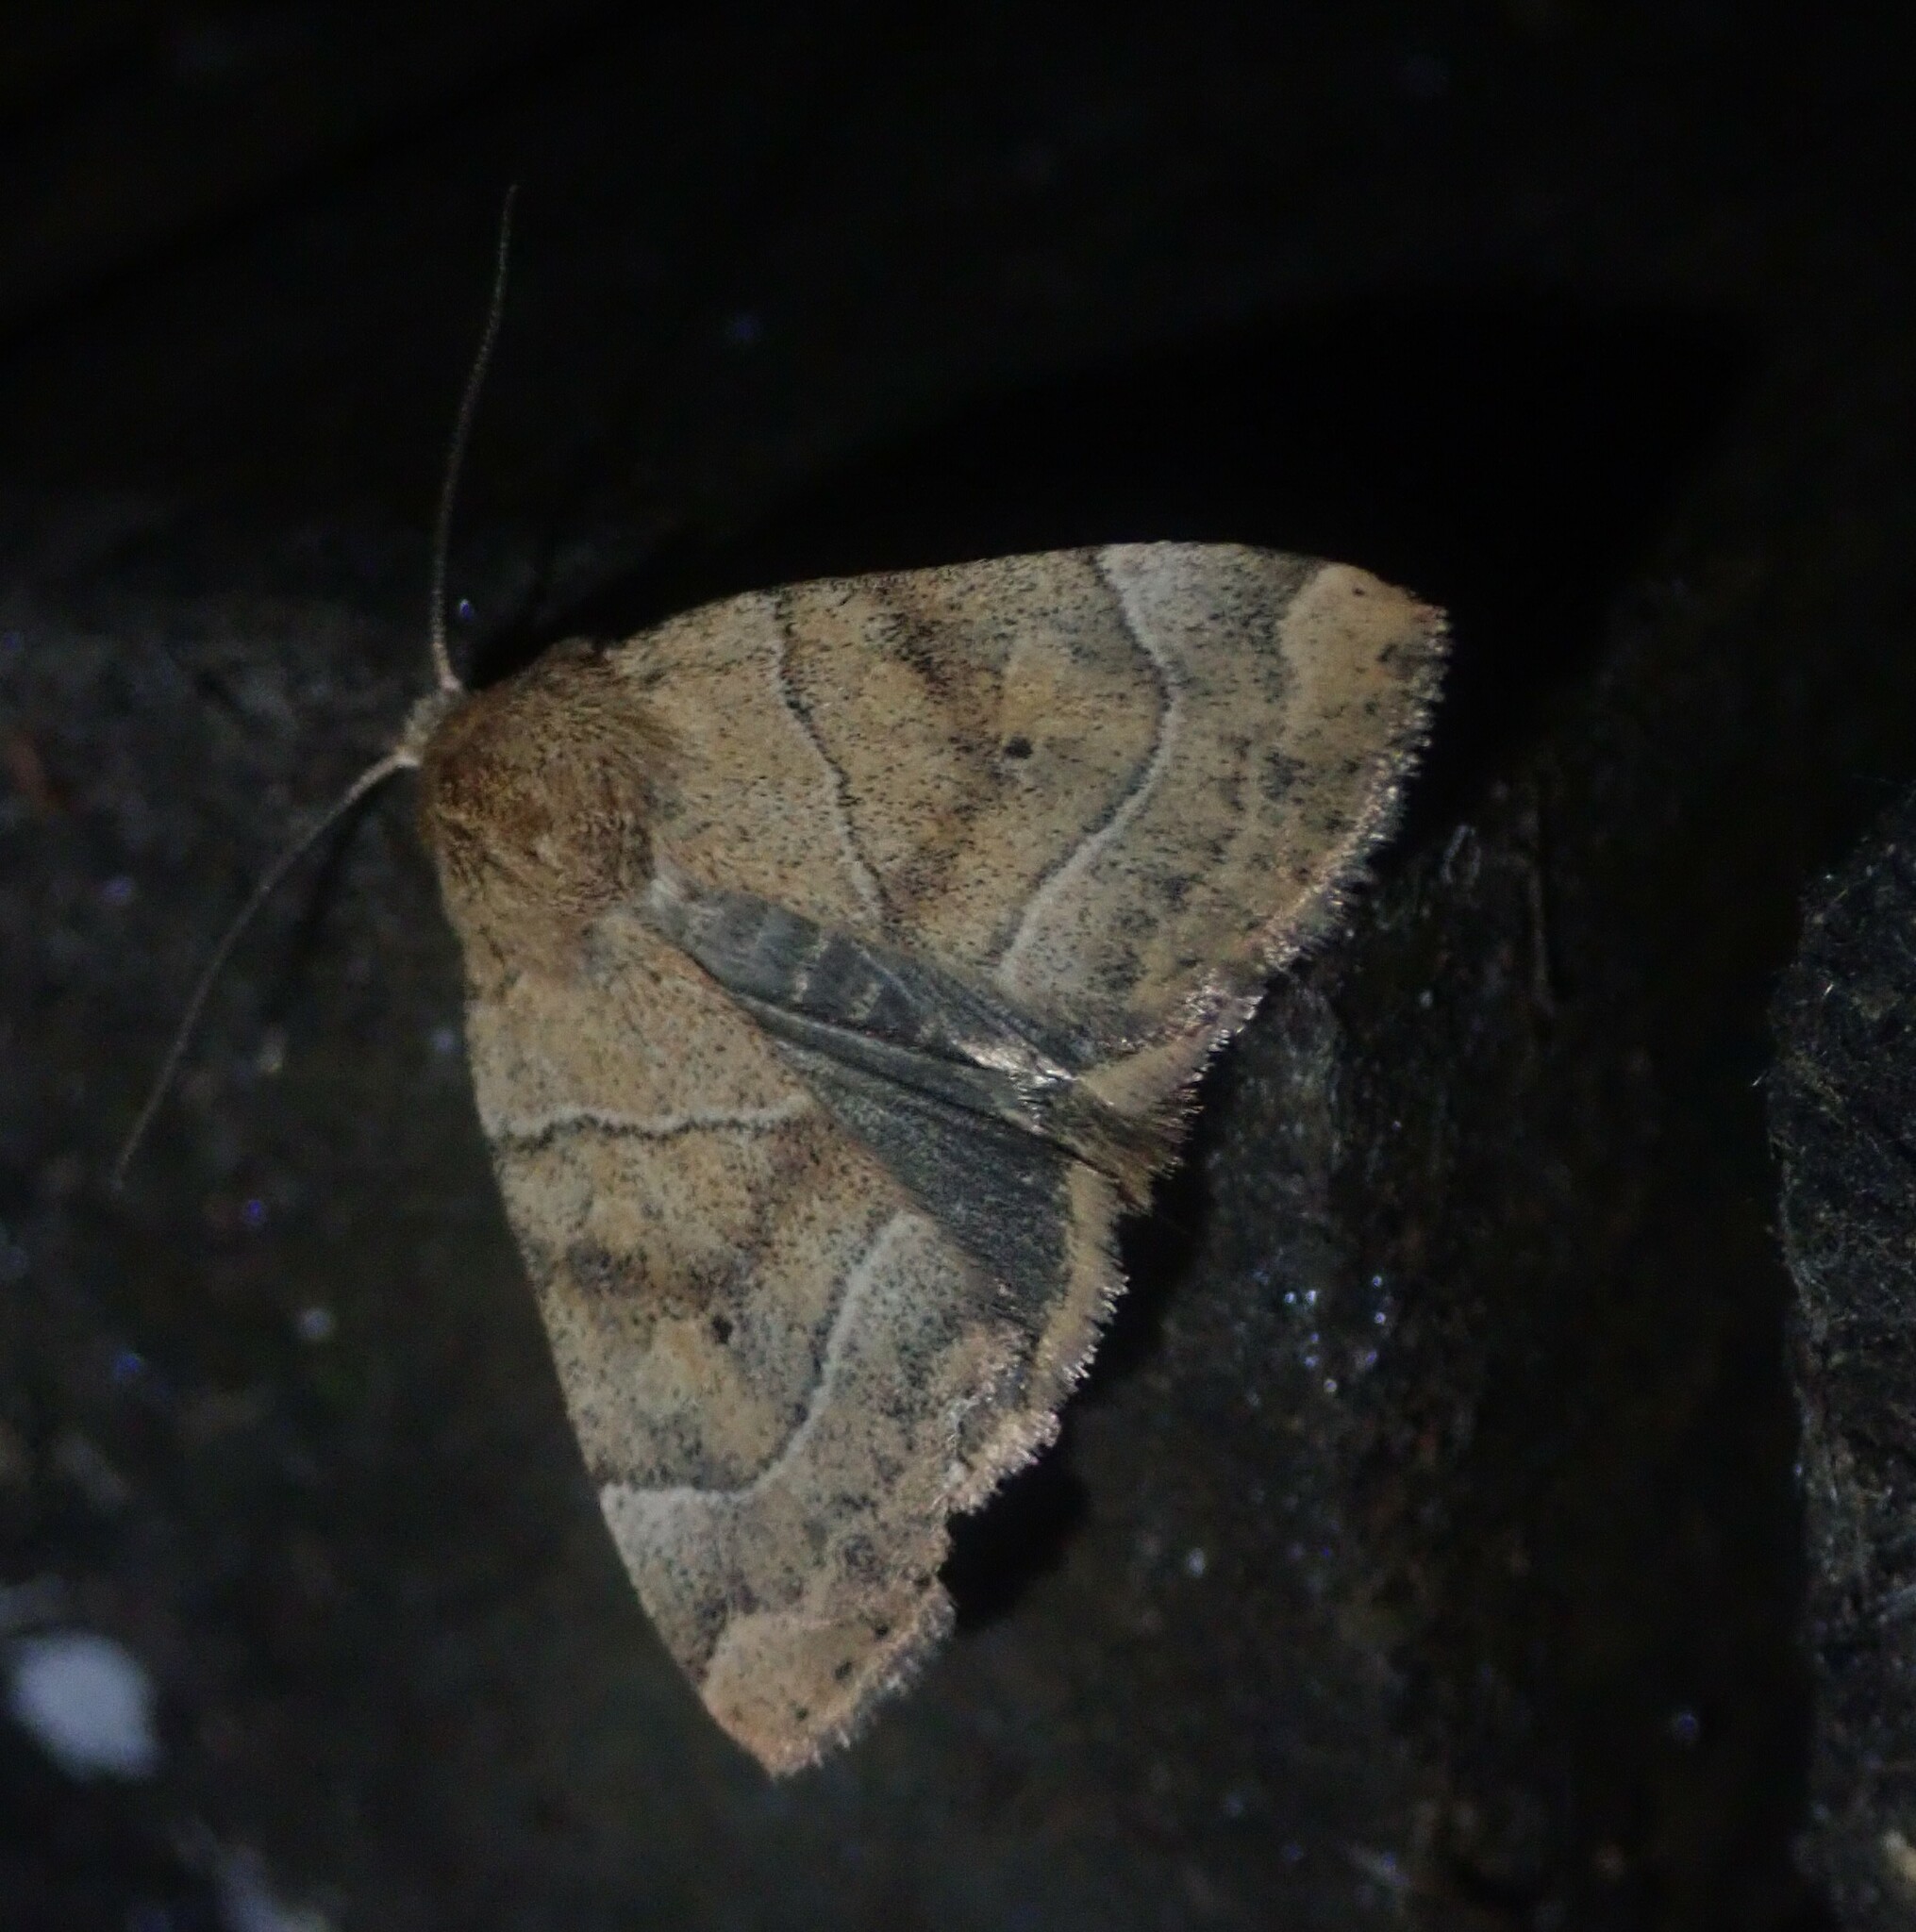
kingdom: Animalia
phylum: Arthropoda
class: Insecta
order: Lepidoptera
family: Noctuidae
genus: Cosmia
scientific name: Cosmia trapezina
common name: Dun-bar
